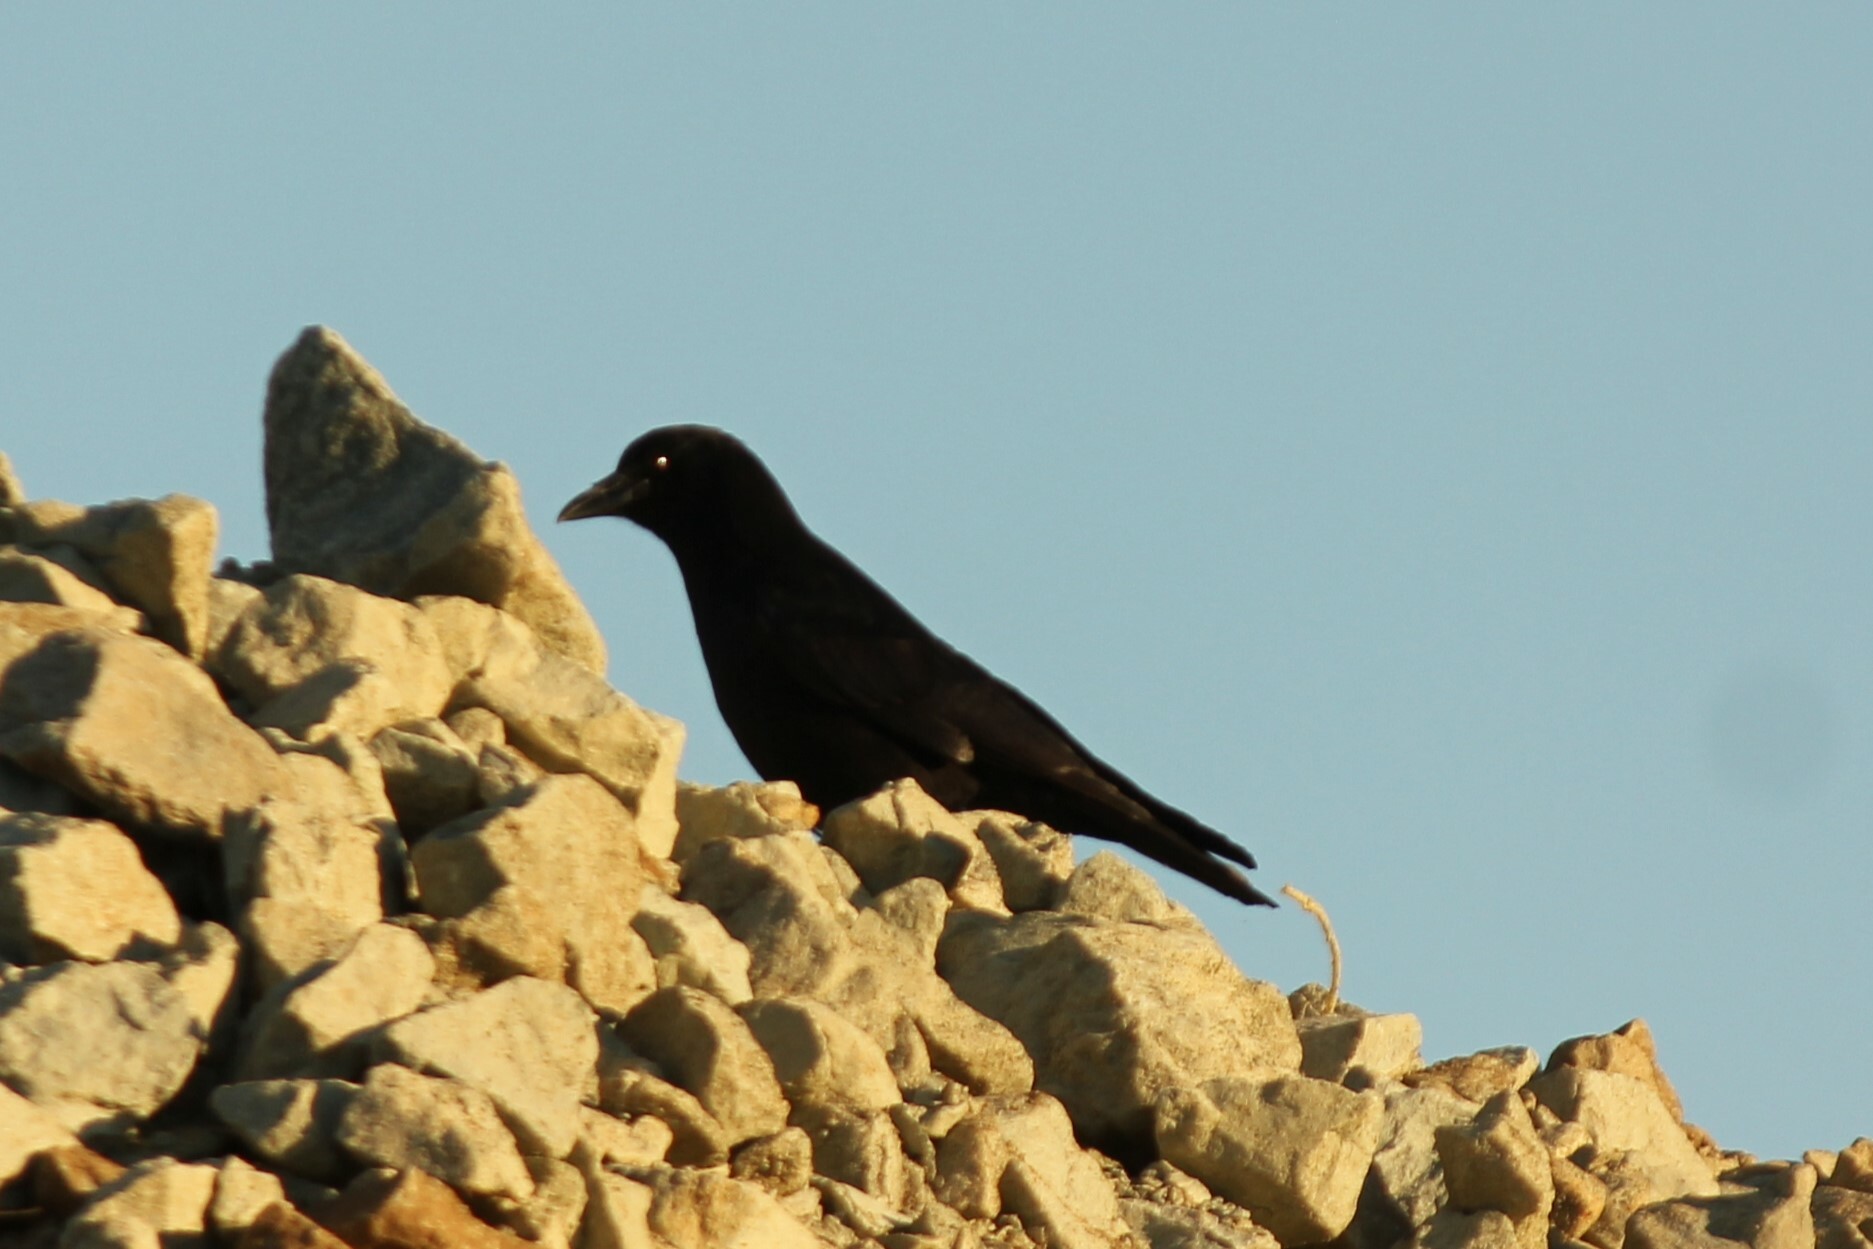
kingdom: Animalia
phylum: Chordata
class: Aves
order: Passeriformes
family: Corvidae
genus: Corvus
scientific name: Corvus brachyrhynchos
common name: American crow
